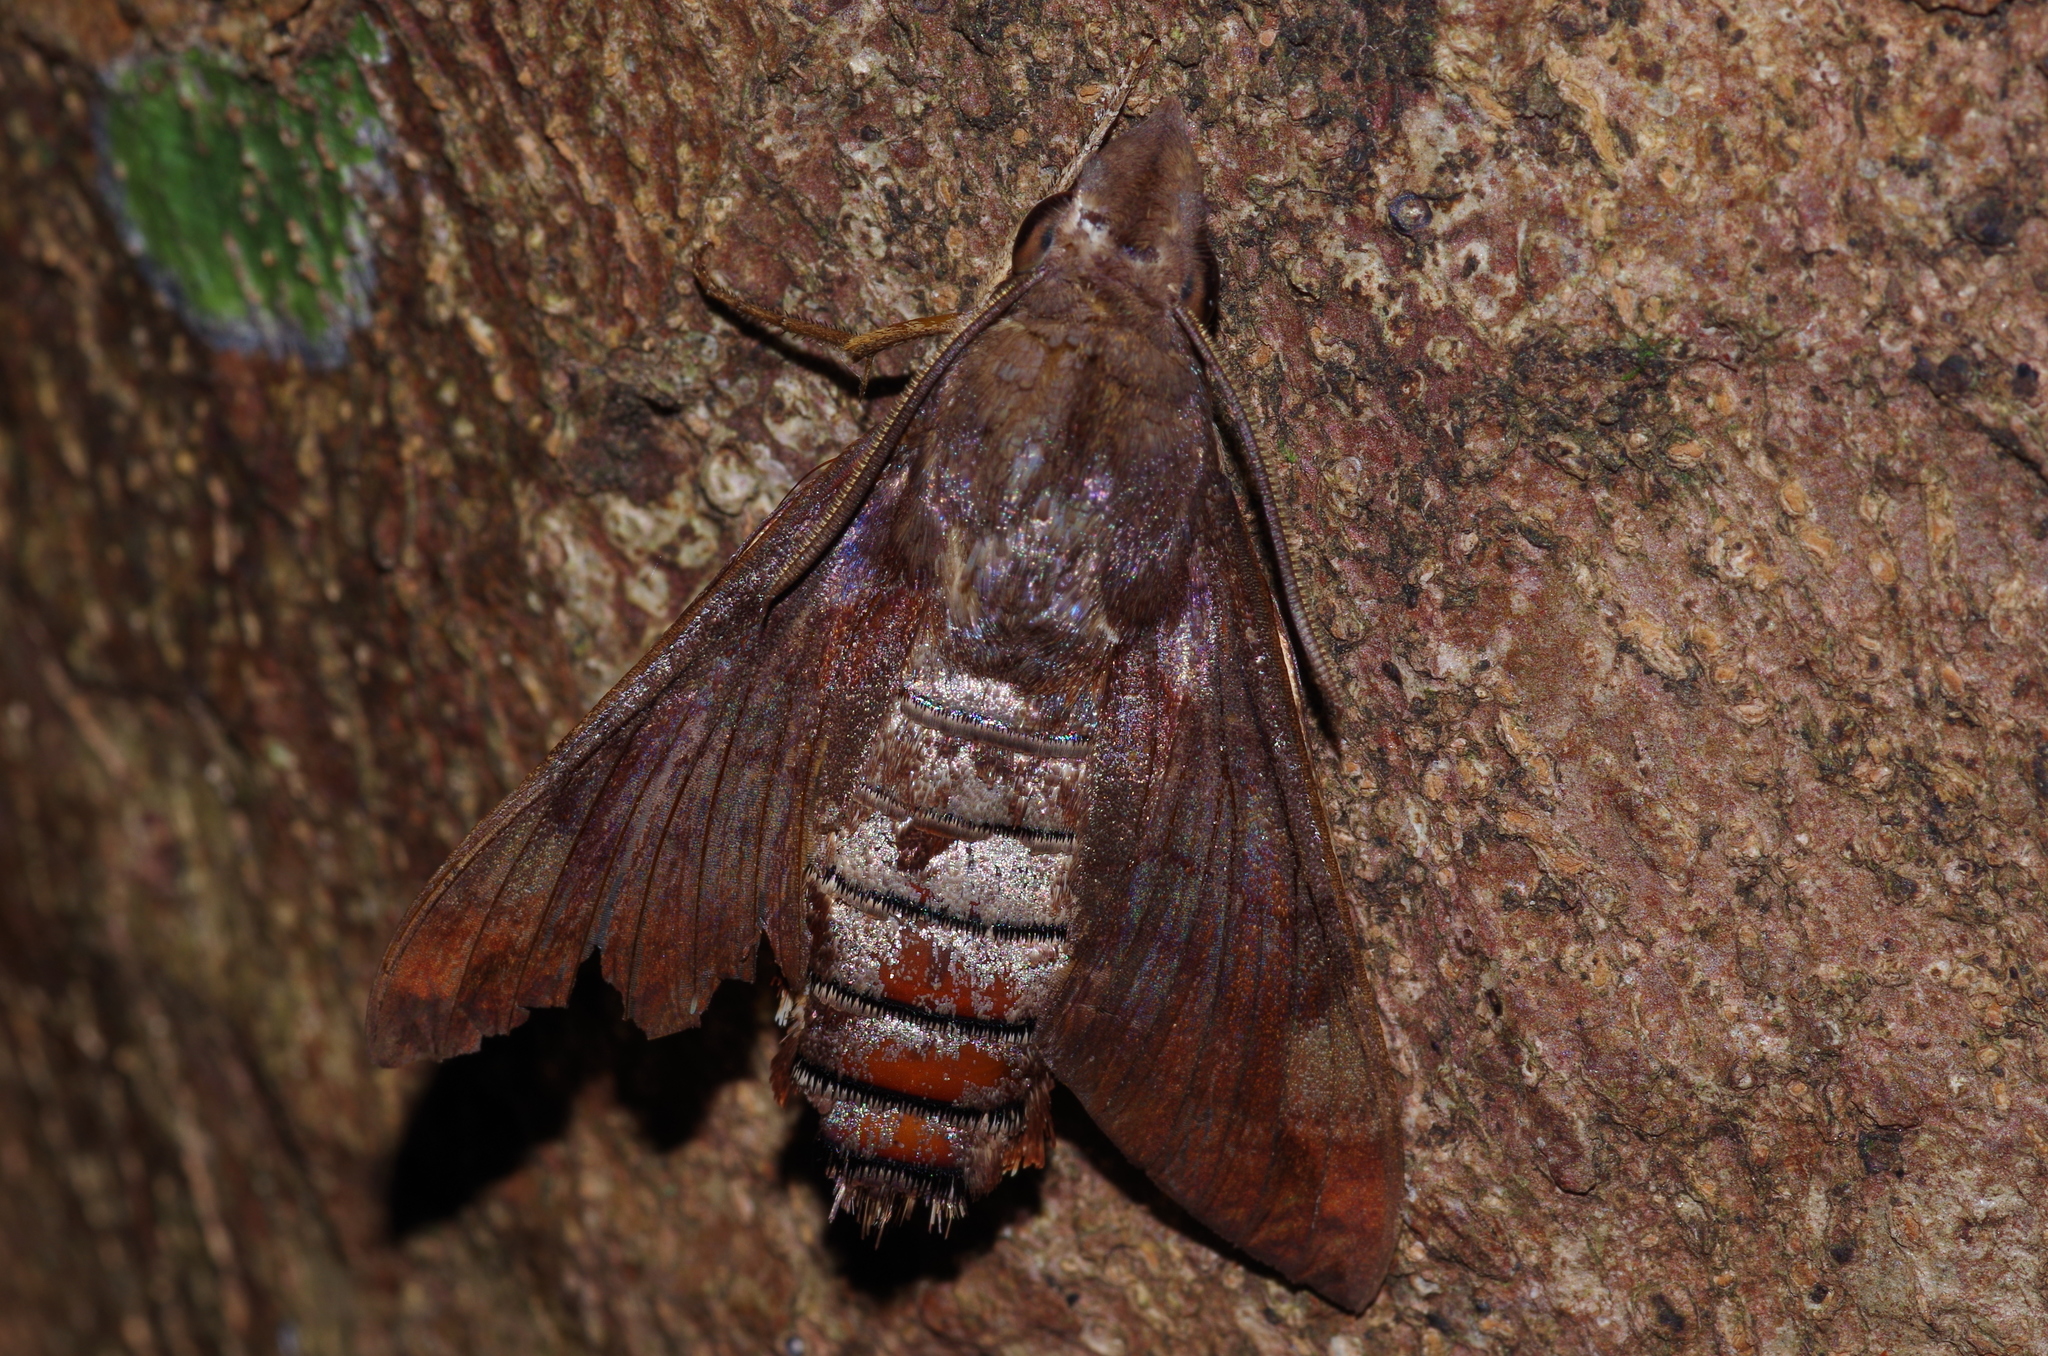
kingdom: Animalia
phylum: Arthropoda
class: Insecta
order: Lepidoptera
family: Sphingidae
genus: Macroglossum
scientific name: Macroglossum saga
